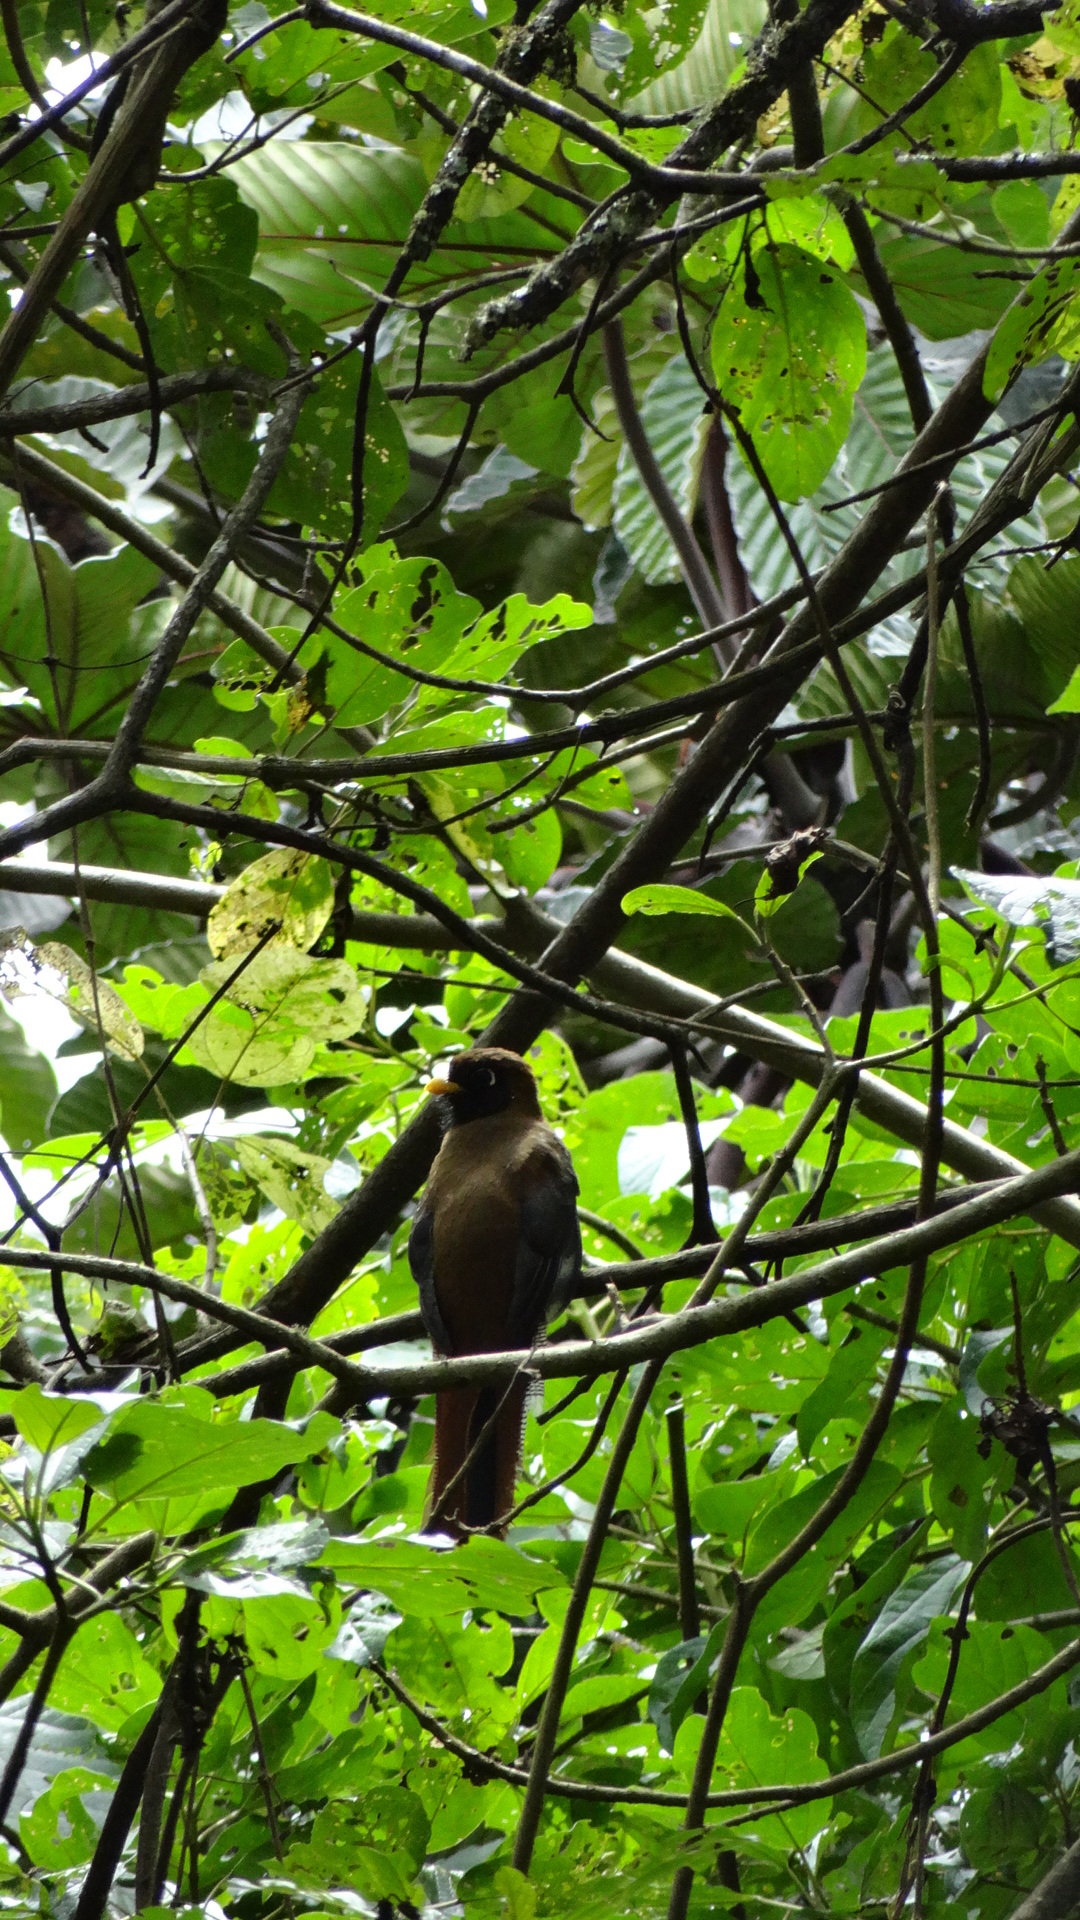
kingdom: Animalia
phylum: Chordata
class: Aves
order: Trogoniformes
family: Trogonidae
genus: Trogon
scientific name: Trogon personatus
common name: Masked trogon
